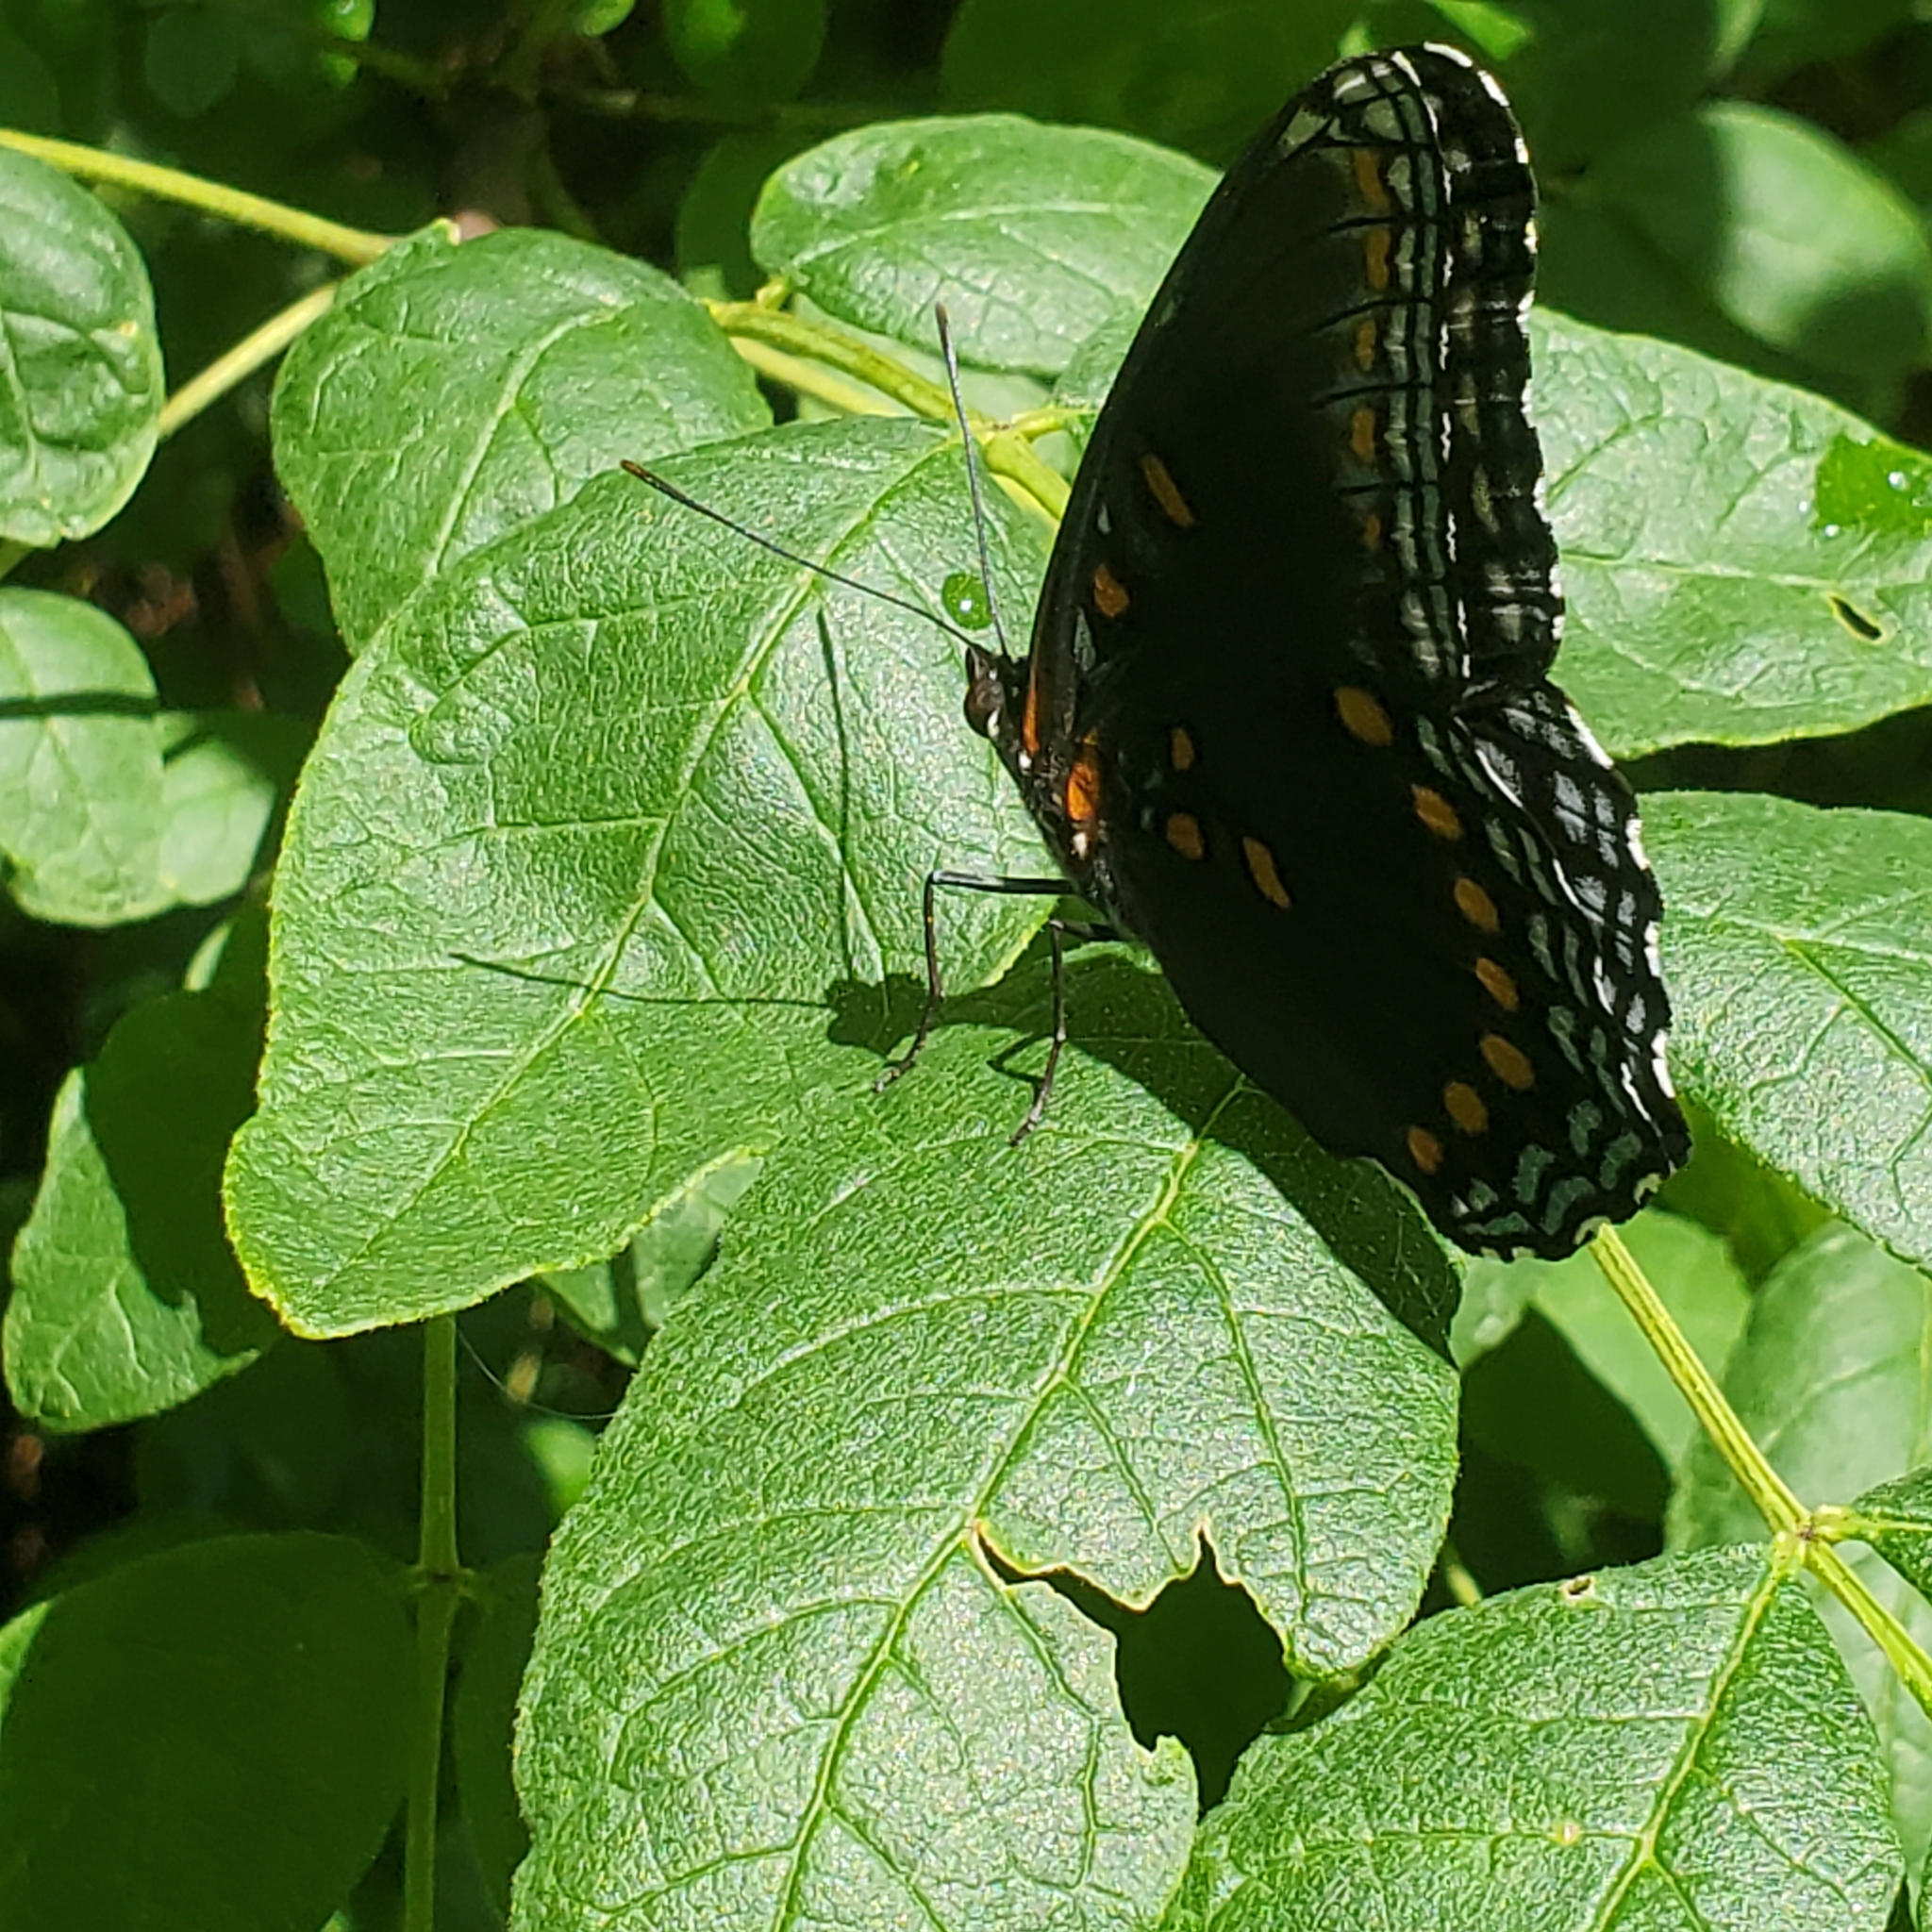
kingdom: Animalia
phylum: Arthropoda
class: Insecta
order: Lepidoptera
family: Nymphalidae
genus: Limenitis
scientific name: Limenitis astyanax
